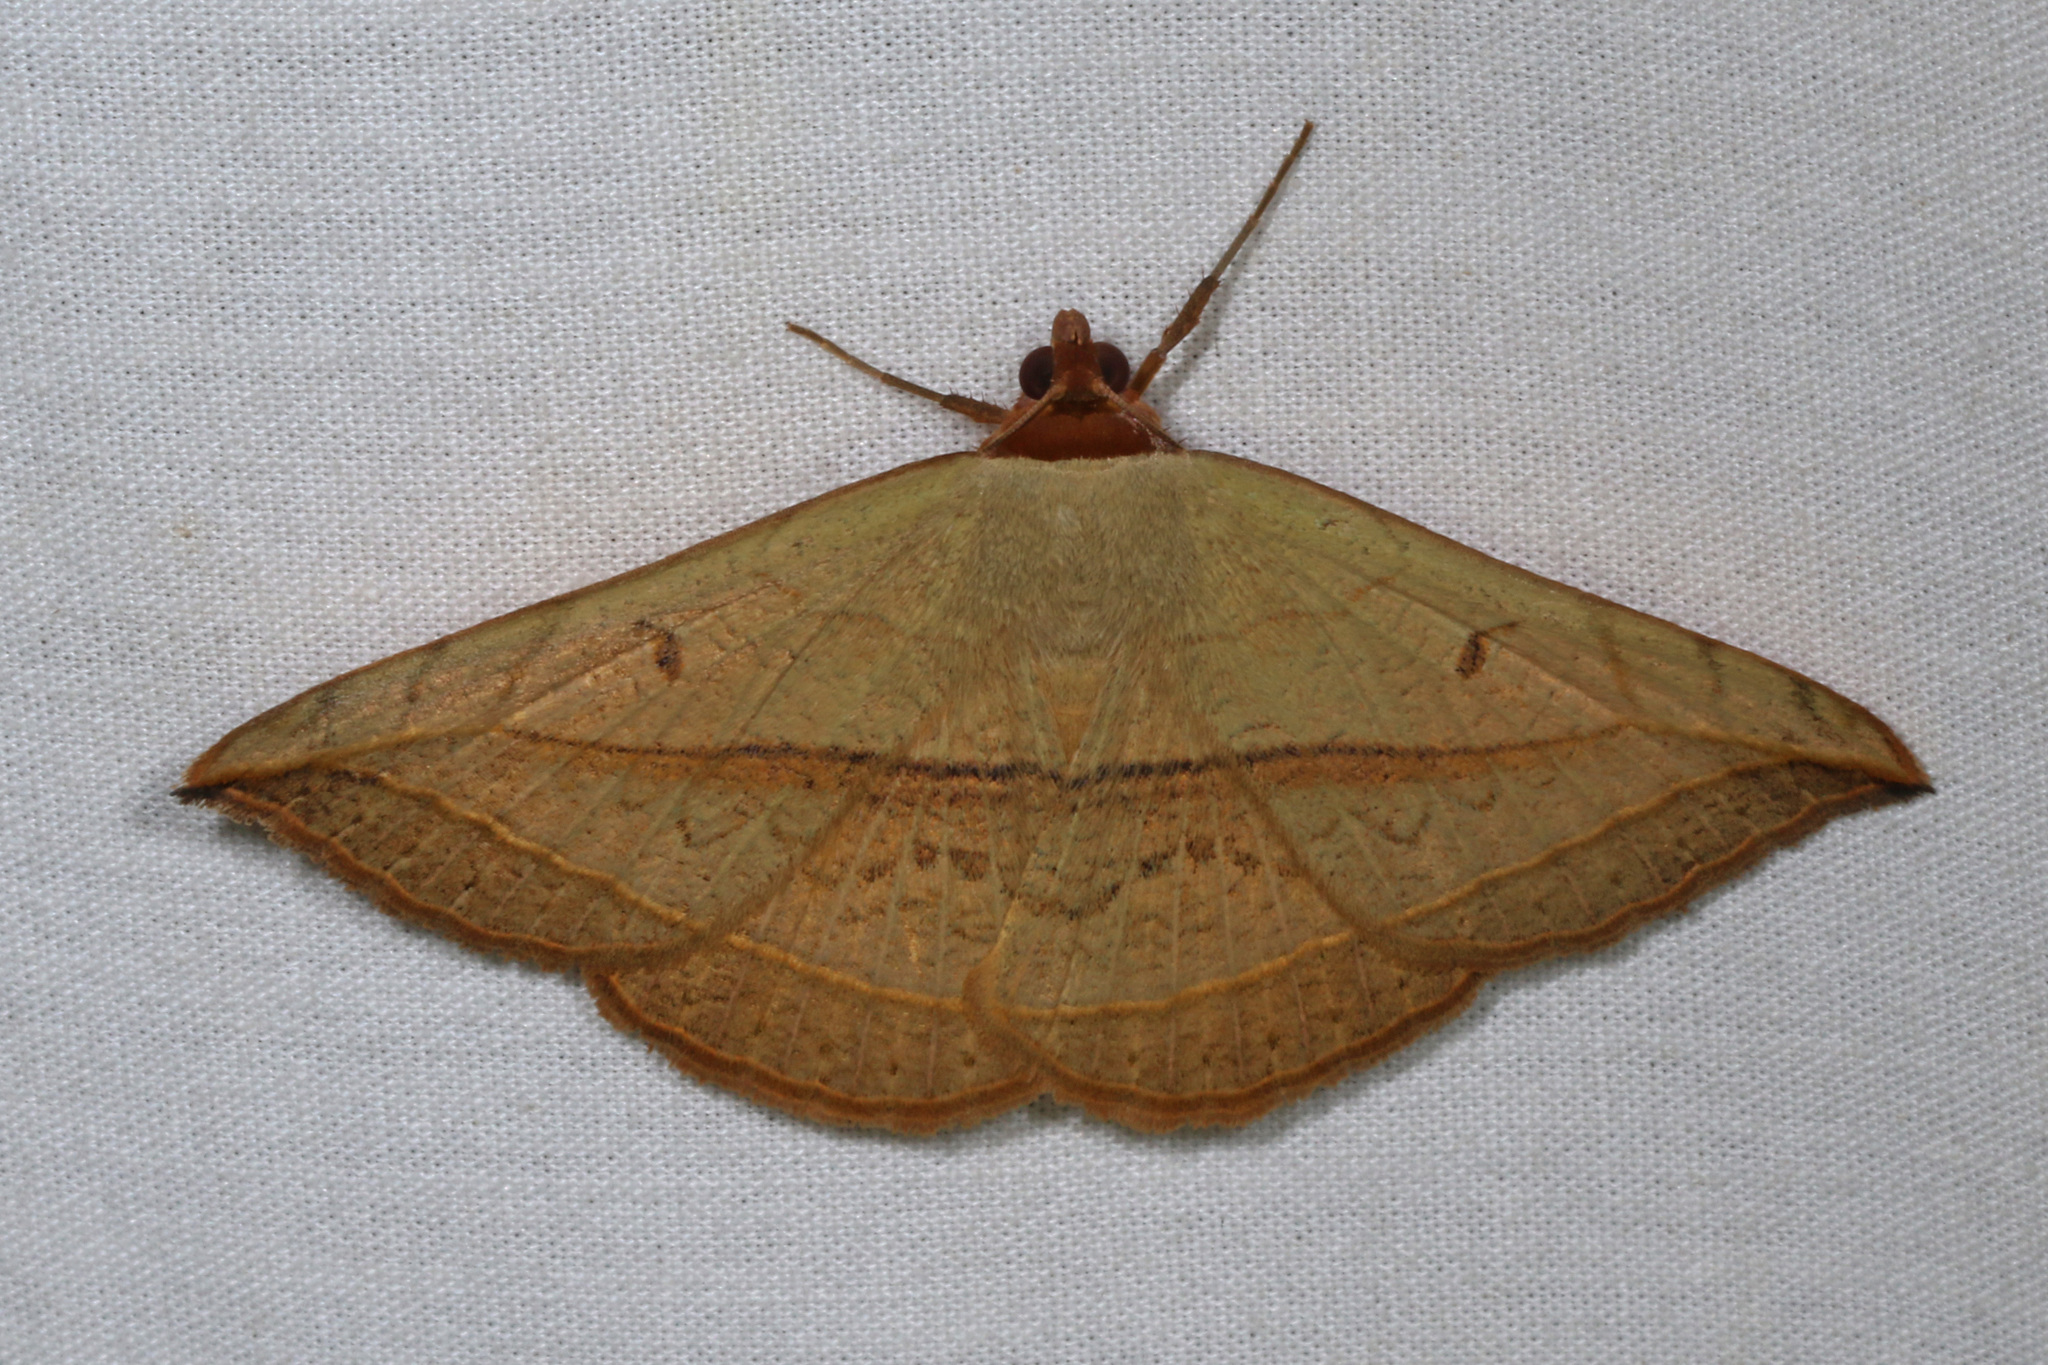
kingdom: Animalia
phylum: Arthropoda
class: Insecta
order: Lepidoptera
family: Erebidae
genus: Entomogramma
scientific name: Entomogramma pardus
